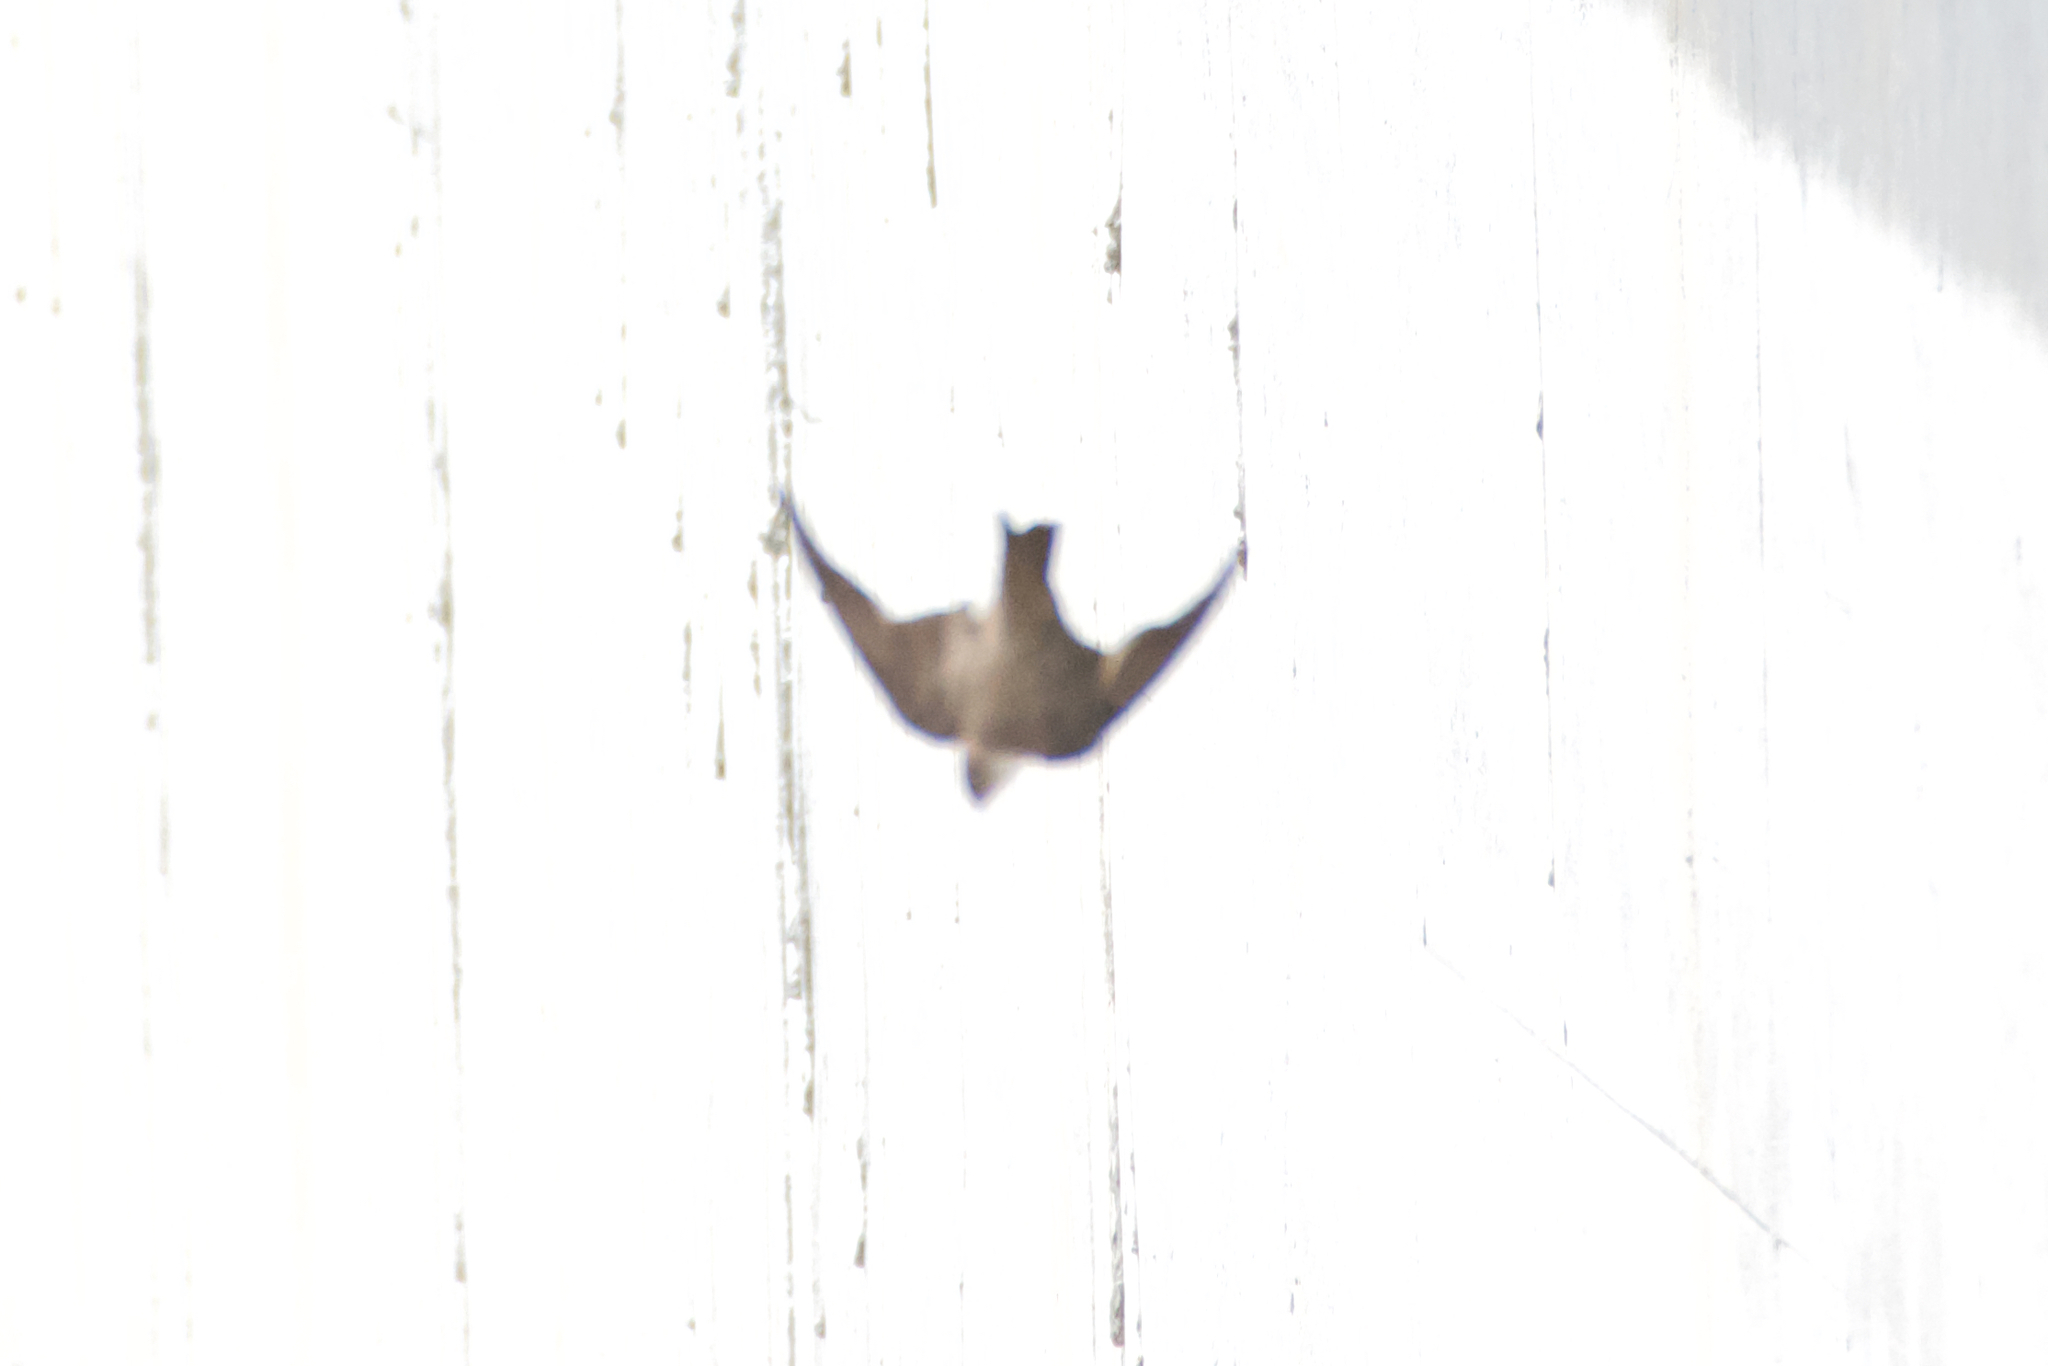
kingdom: Animalia
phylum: Chordata
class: Aves
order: Passeriformes
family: Hirundinidae
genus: Ptyonoprogne
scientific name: Ptyonoprogne rupestris
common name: Eurasian crag martin
